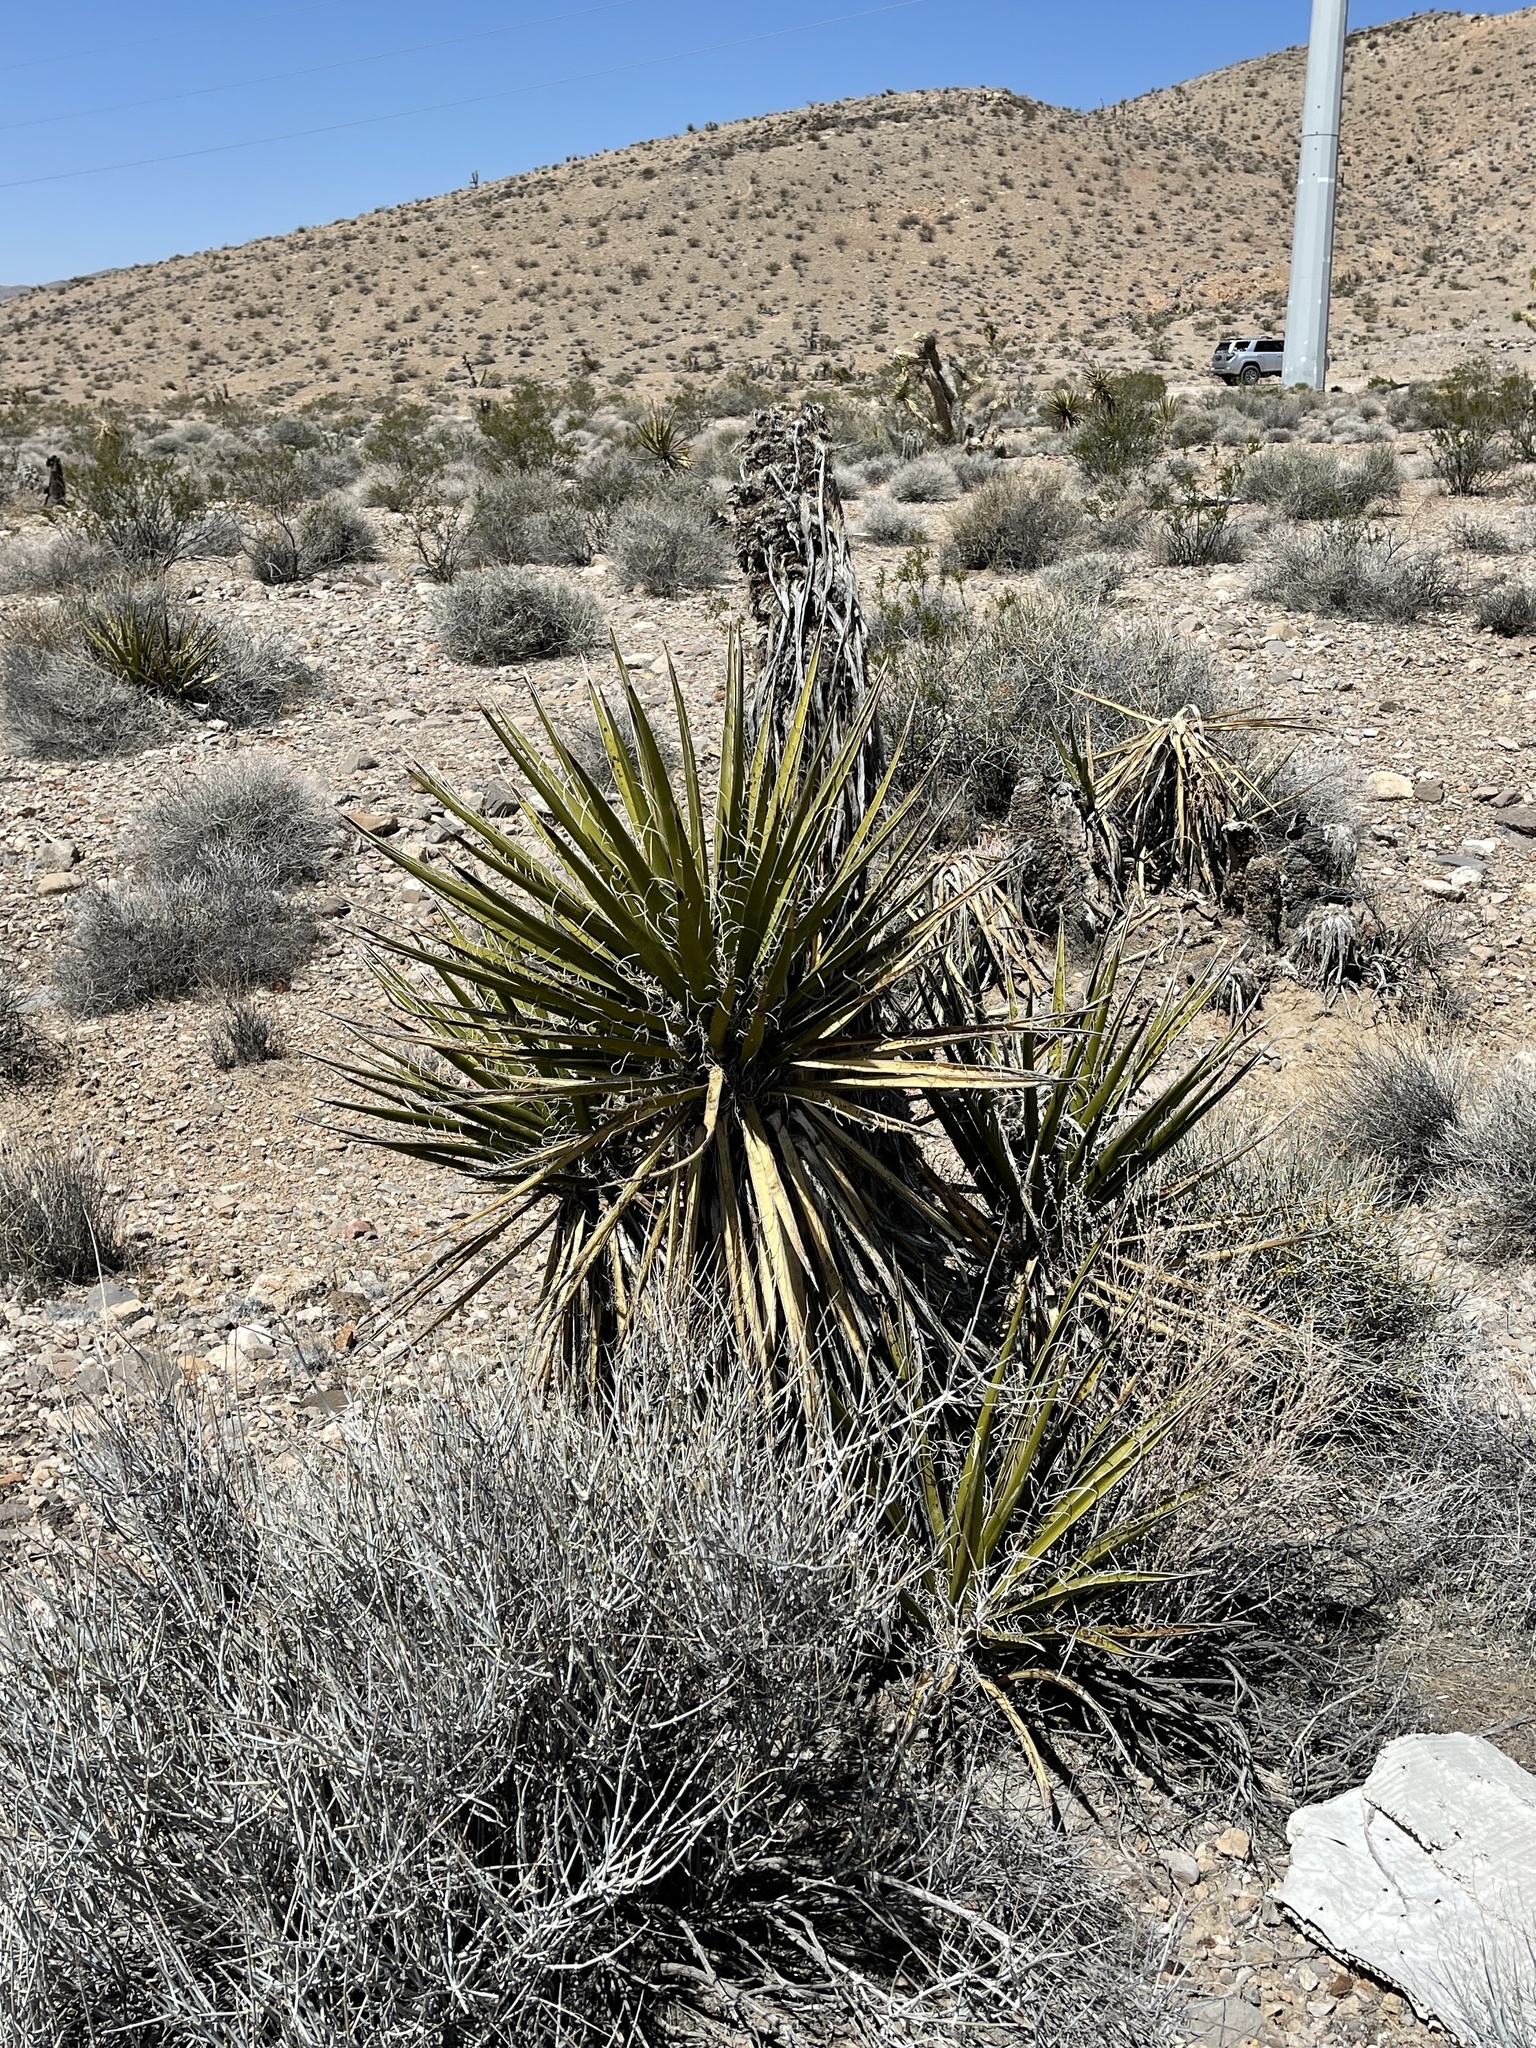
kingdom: Plantae
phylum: Tracheophyta
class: Liliopsida
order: Asparagales
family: Asparagaceae
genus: Yucca
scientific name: Yucca schidigera
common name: Mojave yucca
